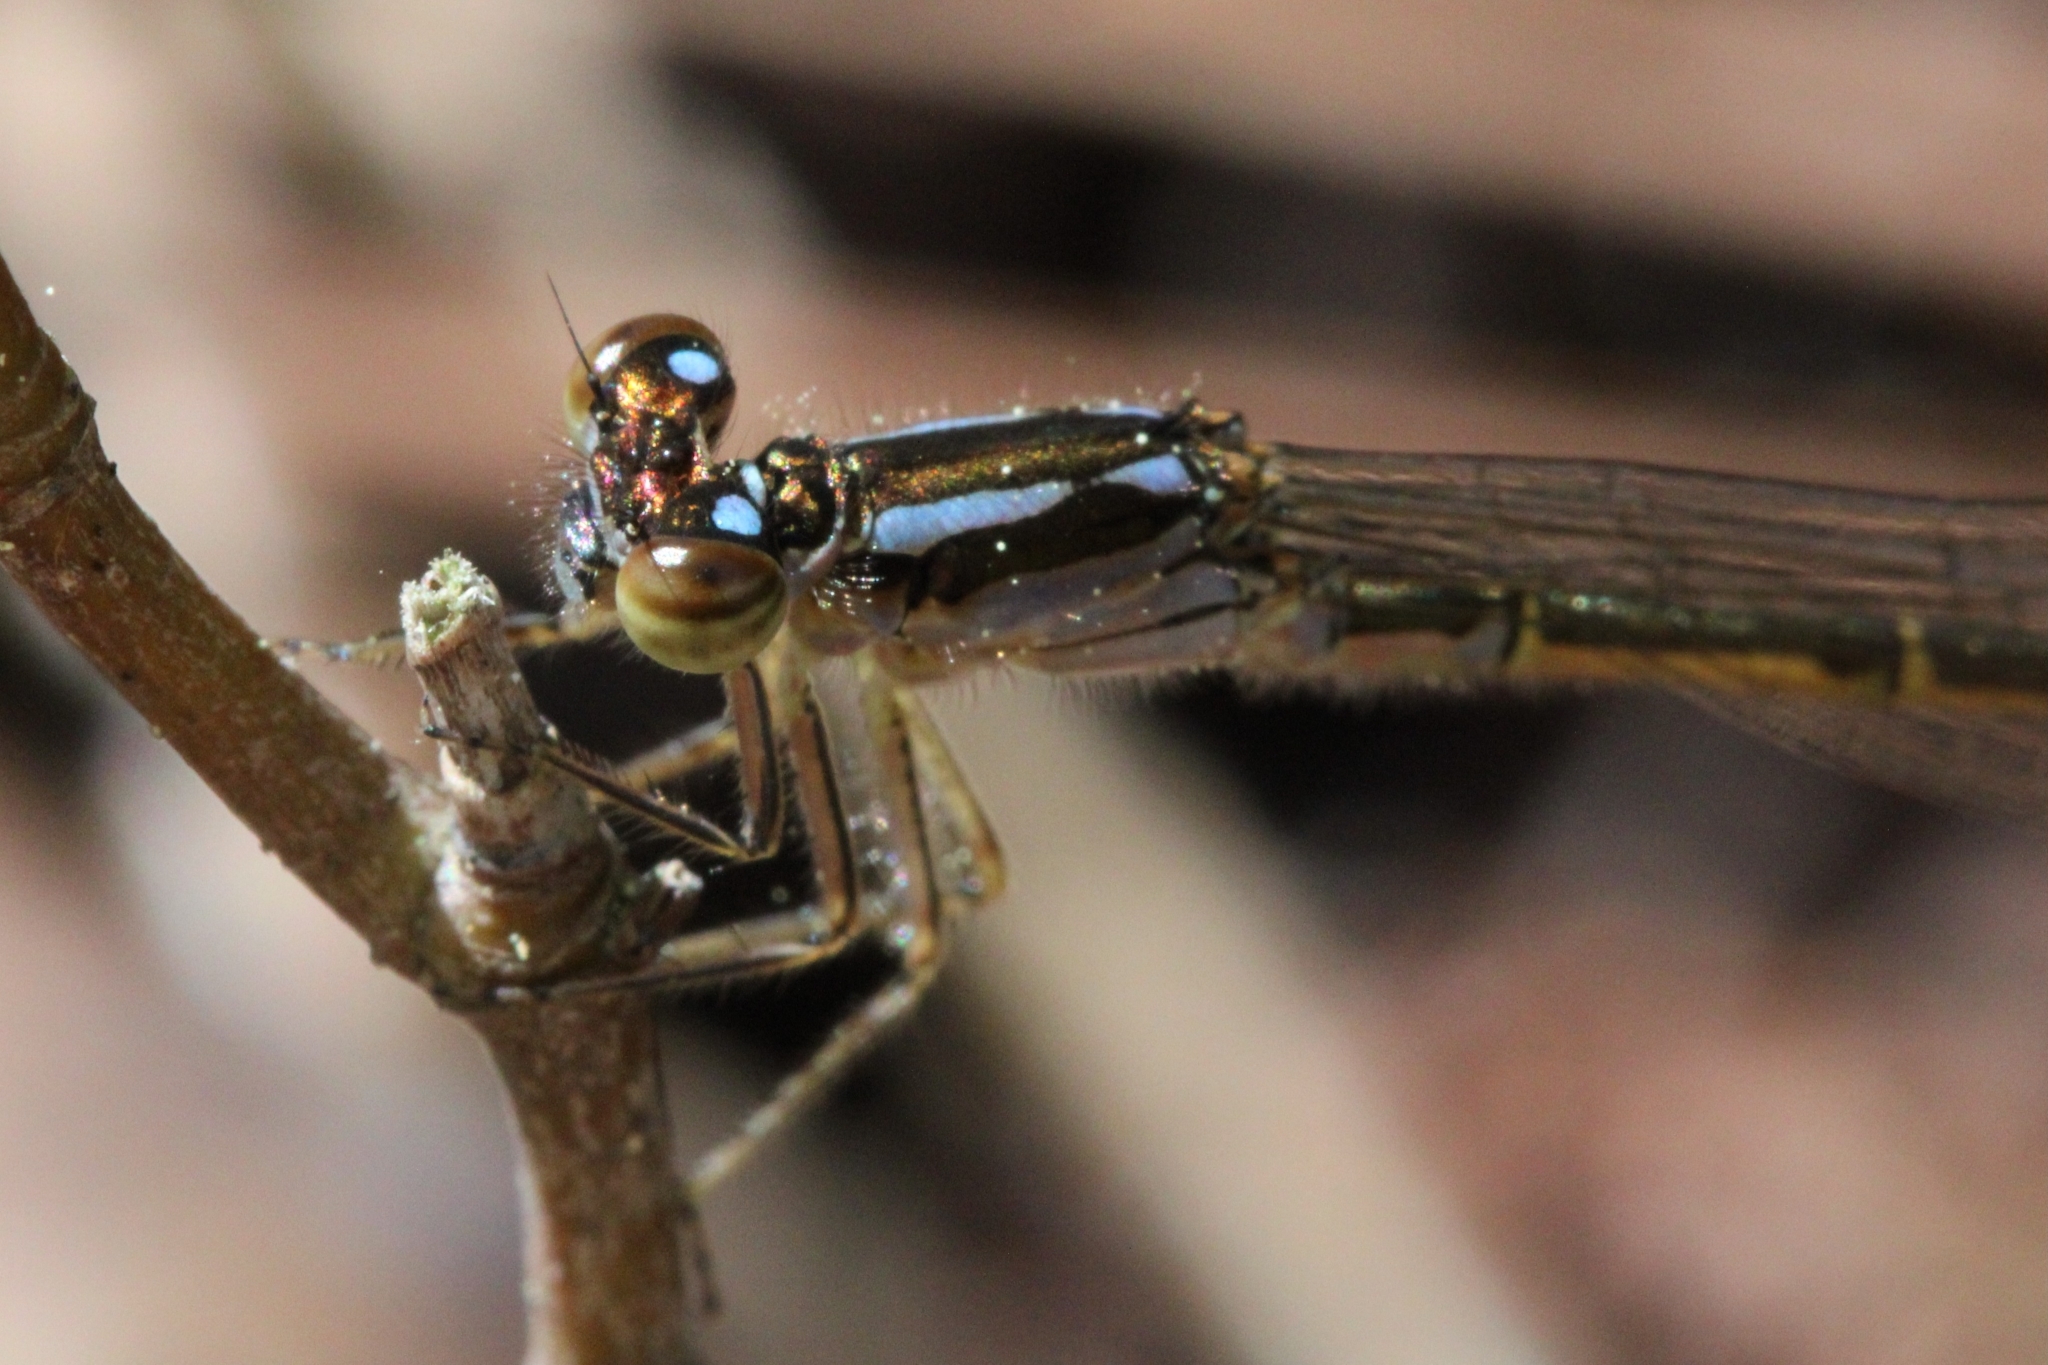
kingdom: Animalia
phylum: Arthropoda
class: Insecta
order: Odonata
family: Coenagrionidae
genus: Ischnura
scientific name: Ischnura posita
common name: Fragile forktail
